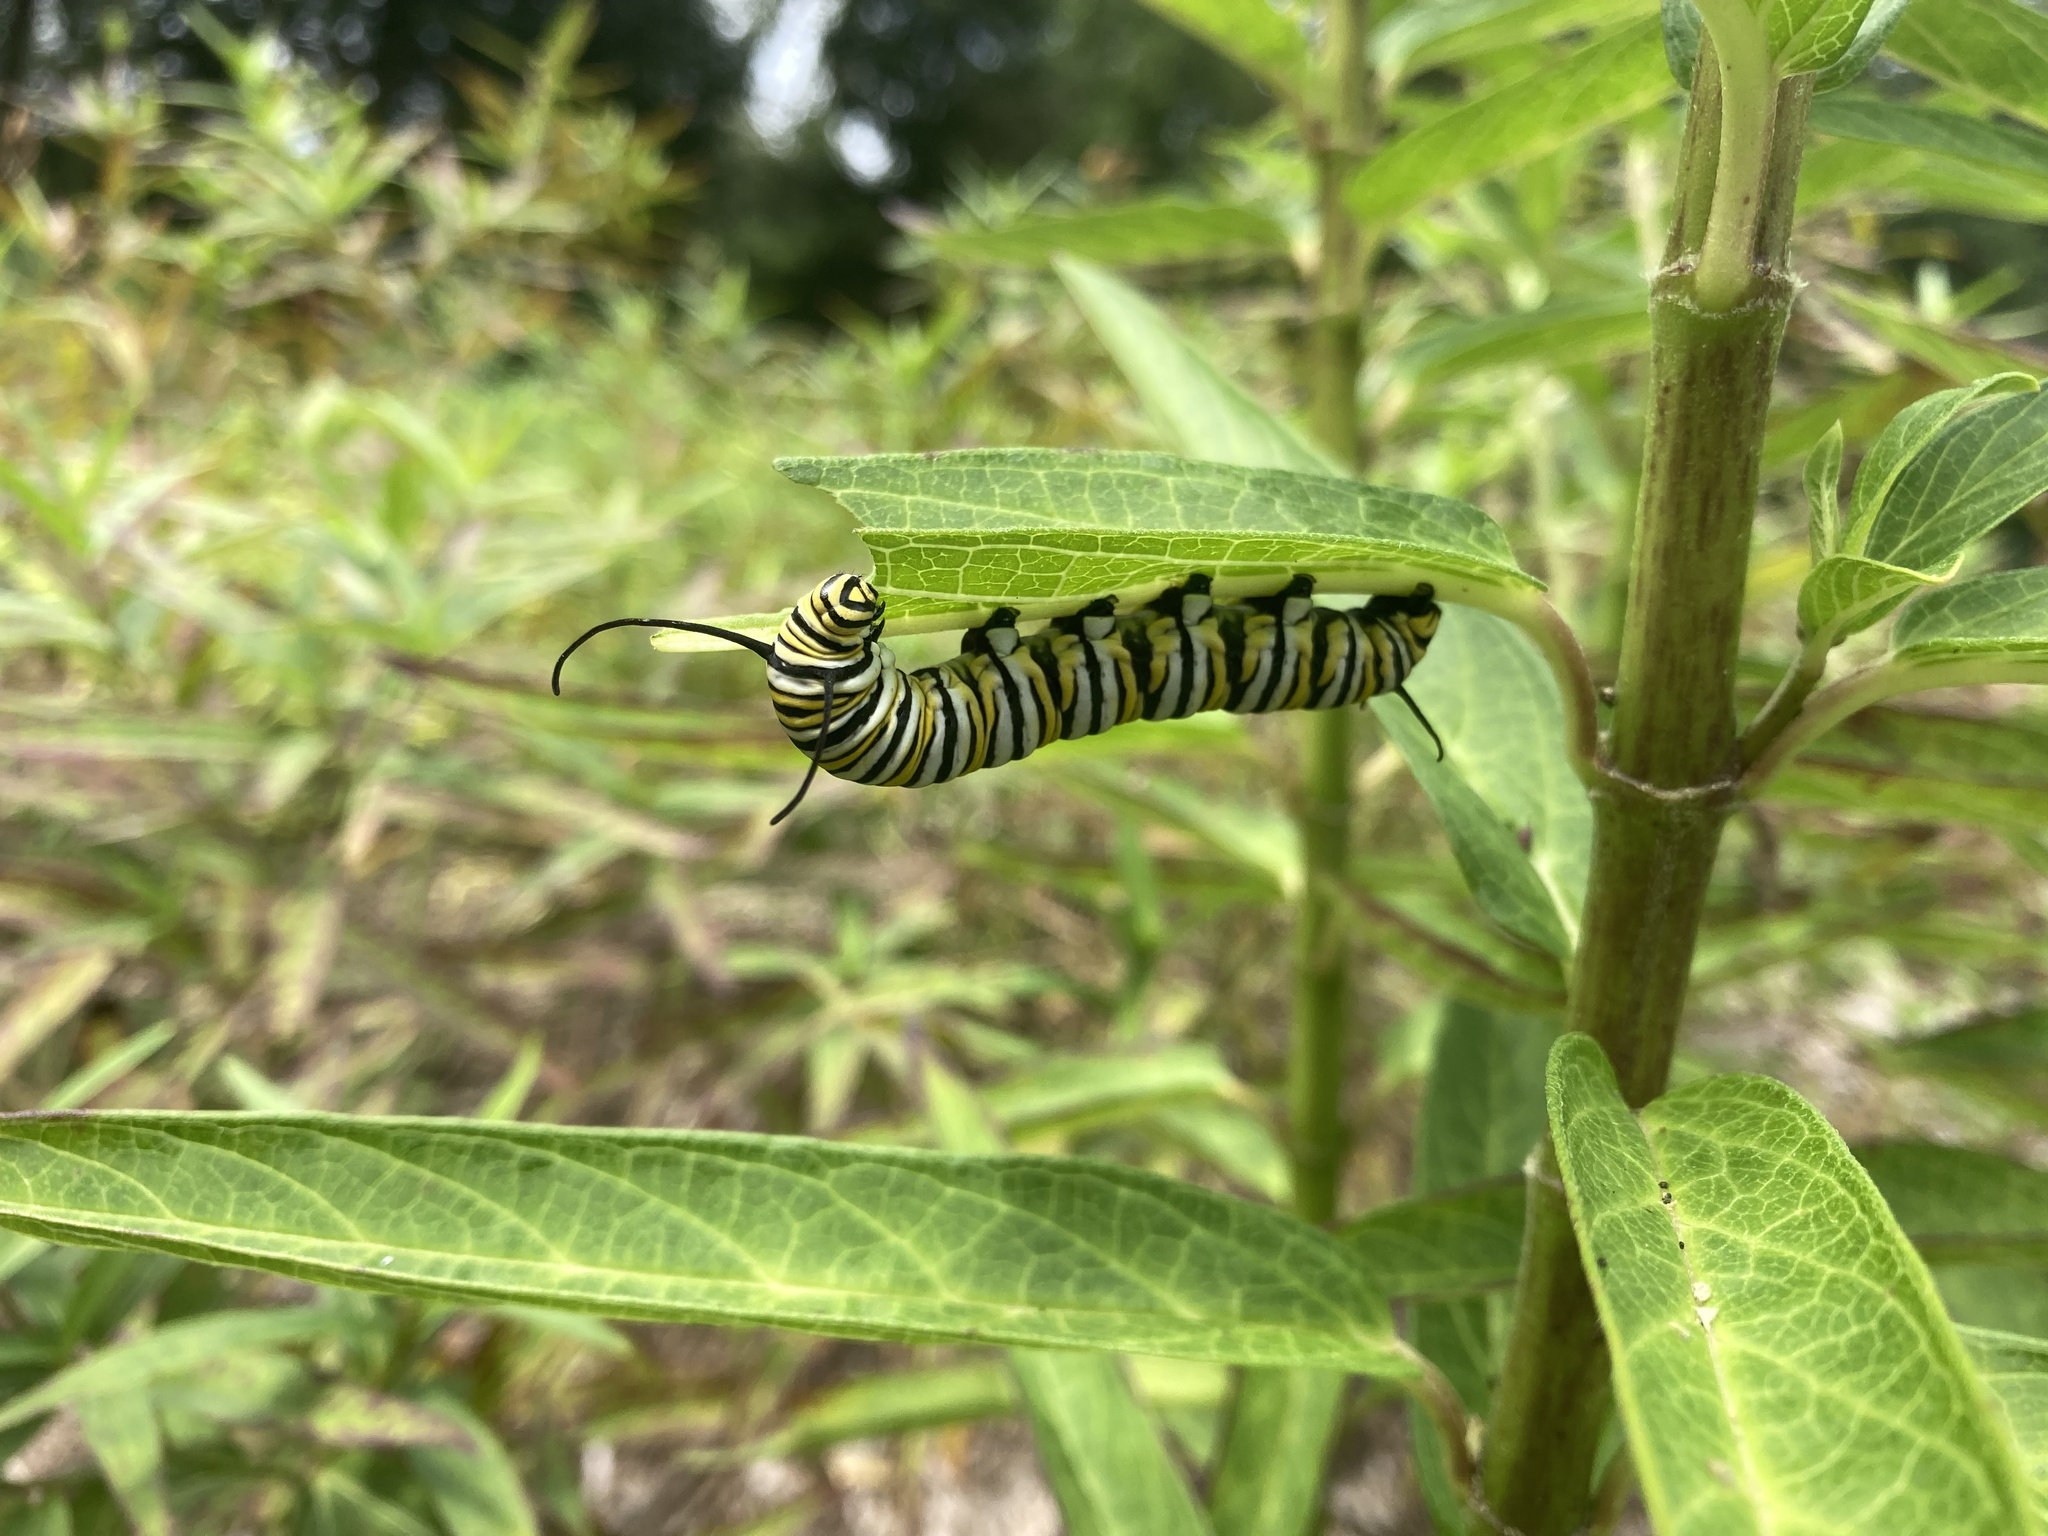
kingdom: Animalia
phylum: Arthropoda
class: Insecta
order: Lepidoptera
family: Nymphalidae
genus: Danaus
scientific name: Danaus plexippus
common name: Monarch
